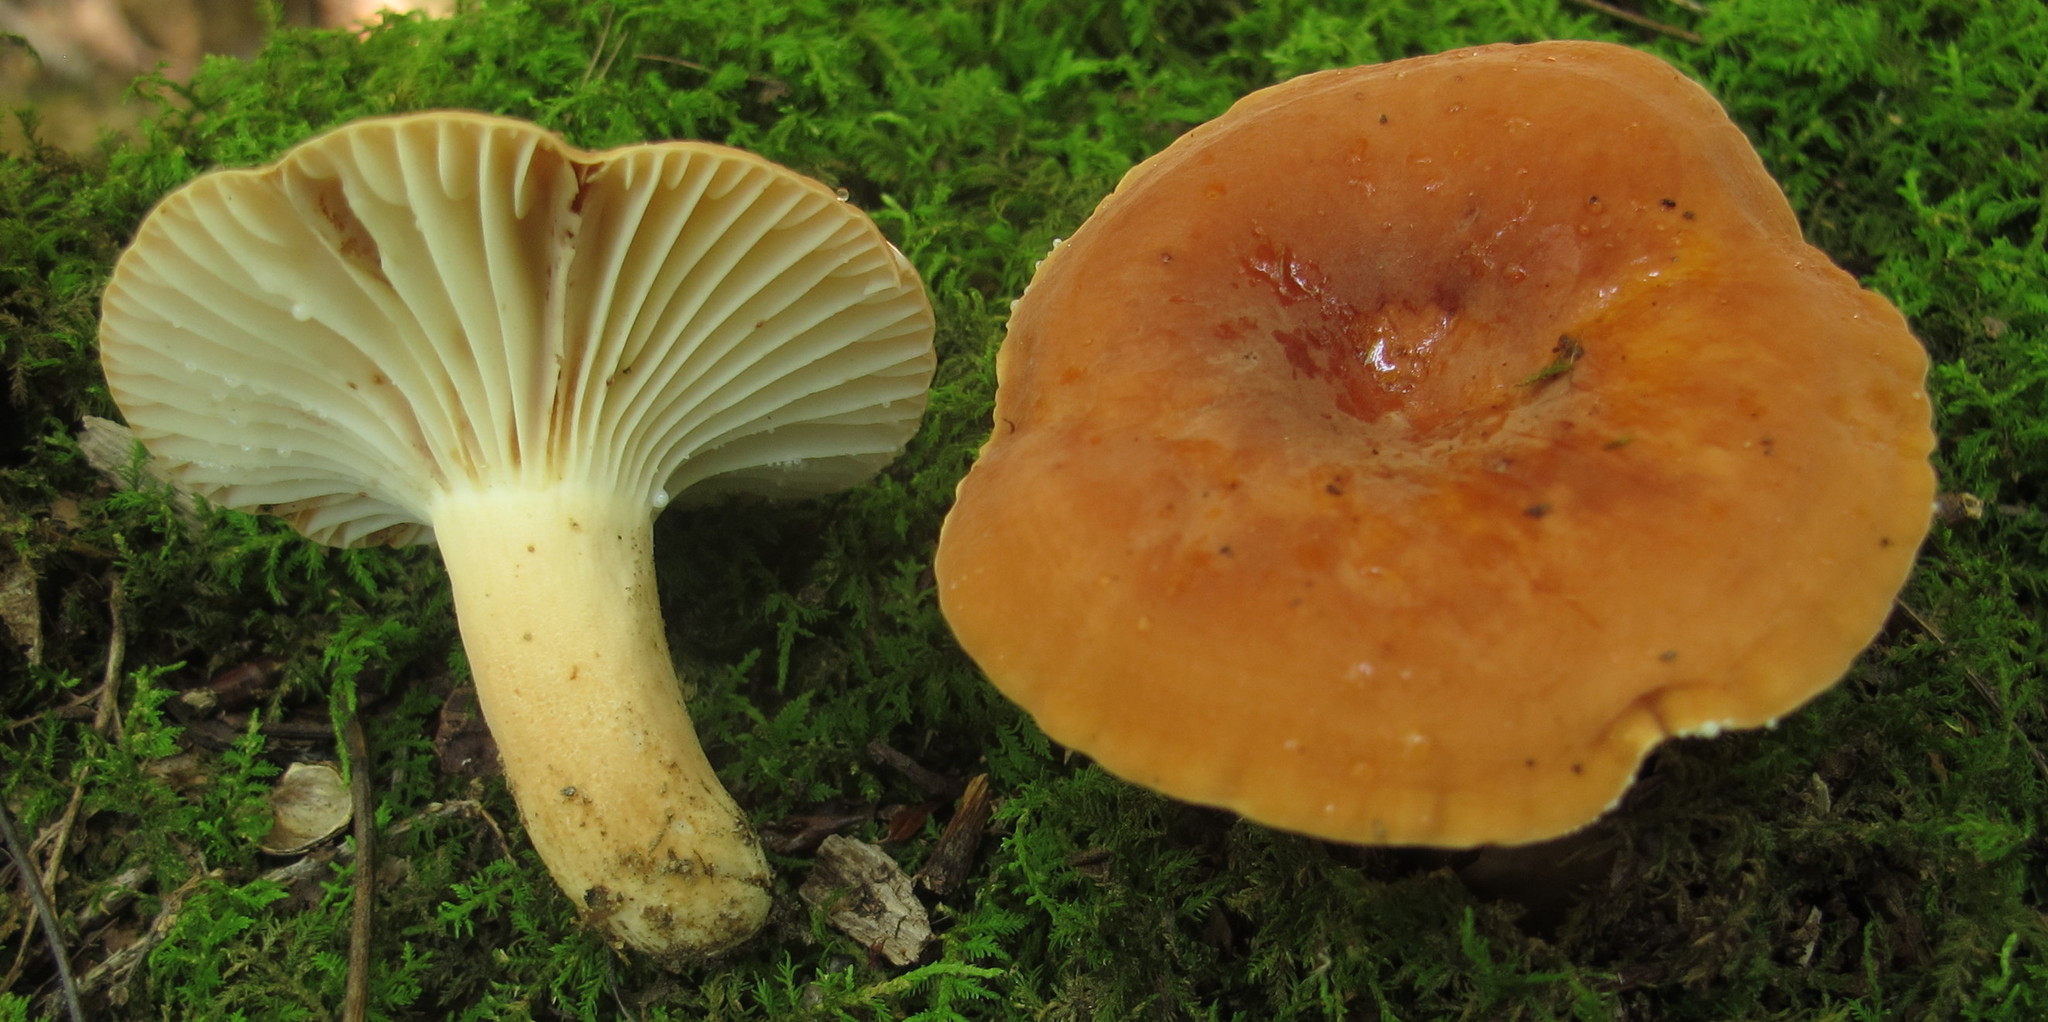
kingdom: Fungi
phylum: Basidiomycota
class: Agaricomycetes
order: Russulales
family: Russulaceae
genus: Lactarius
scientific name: Lactarius hygrophoroides
